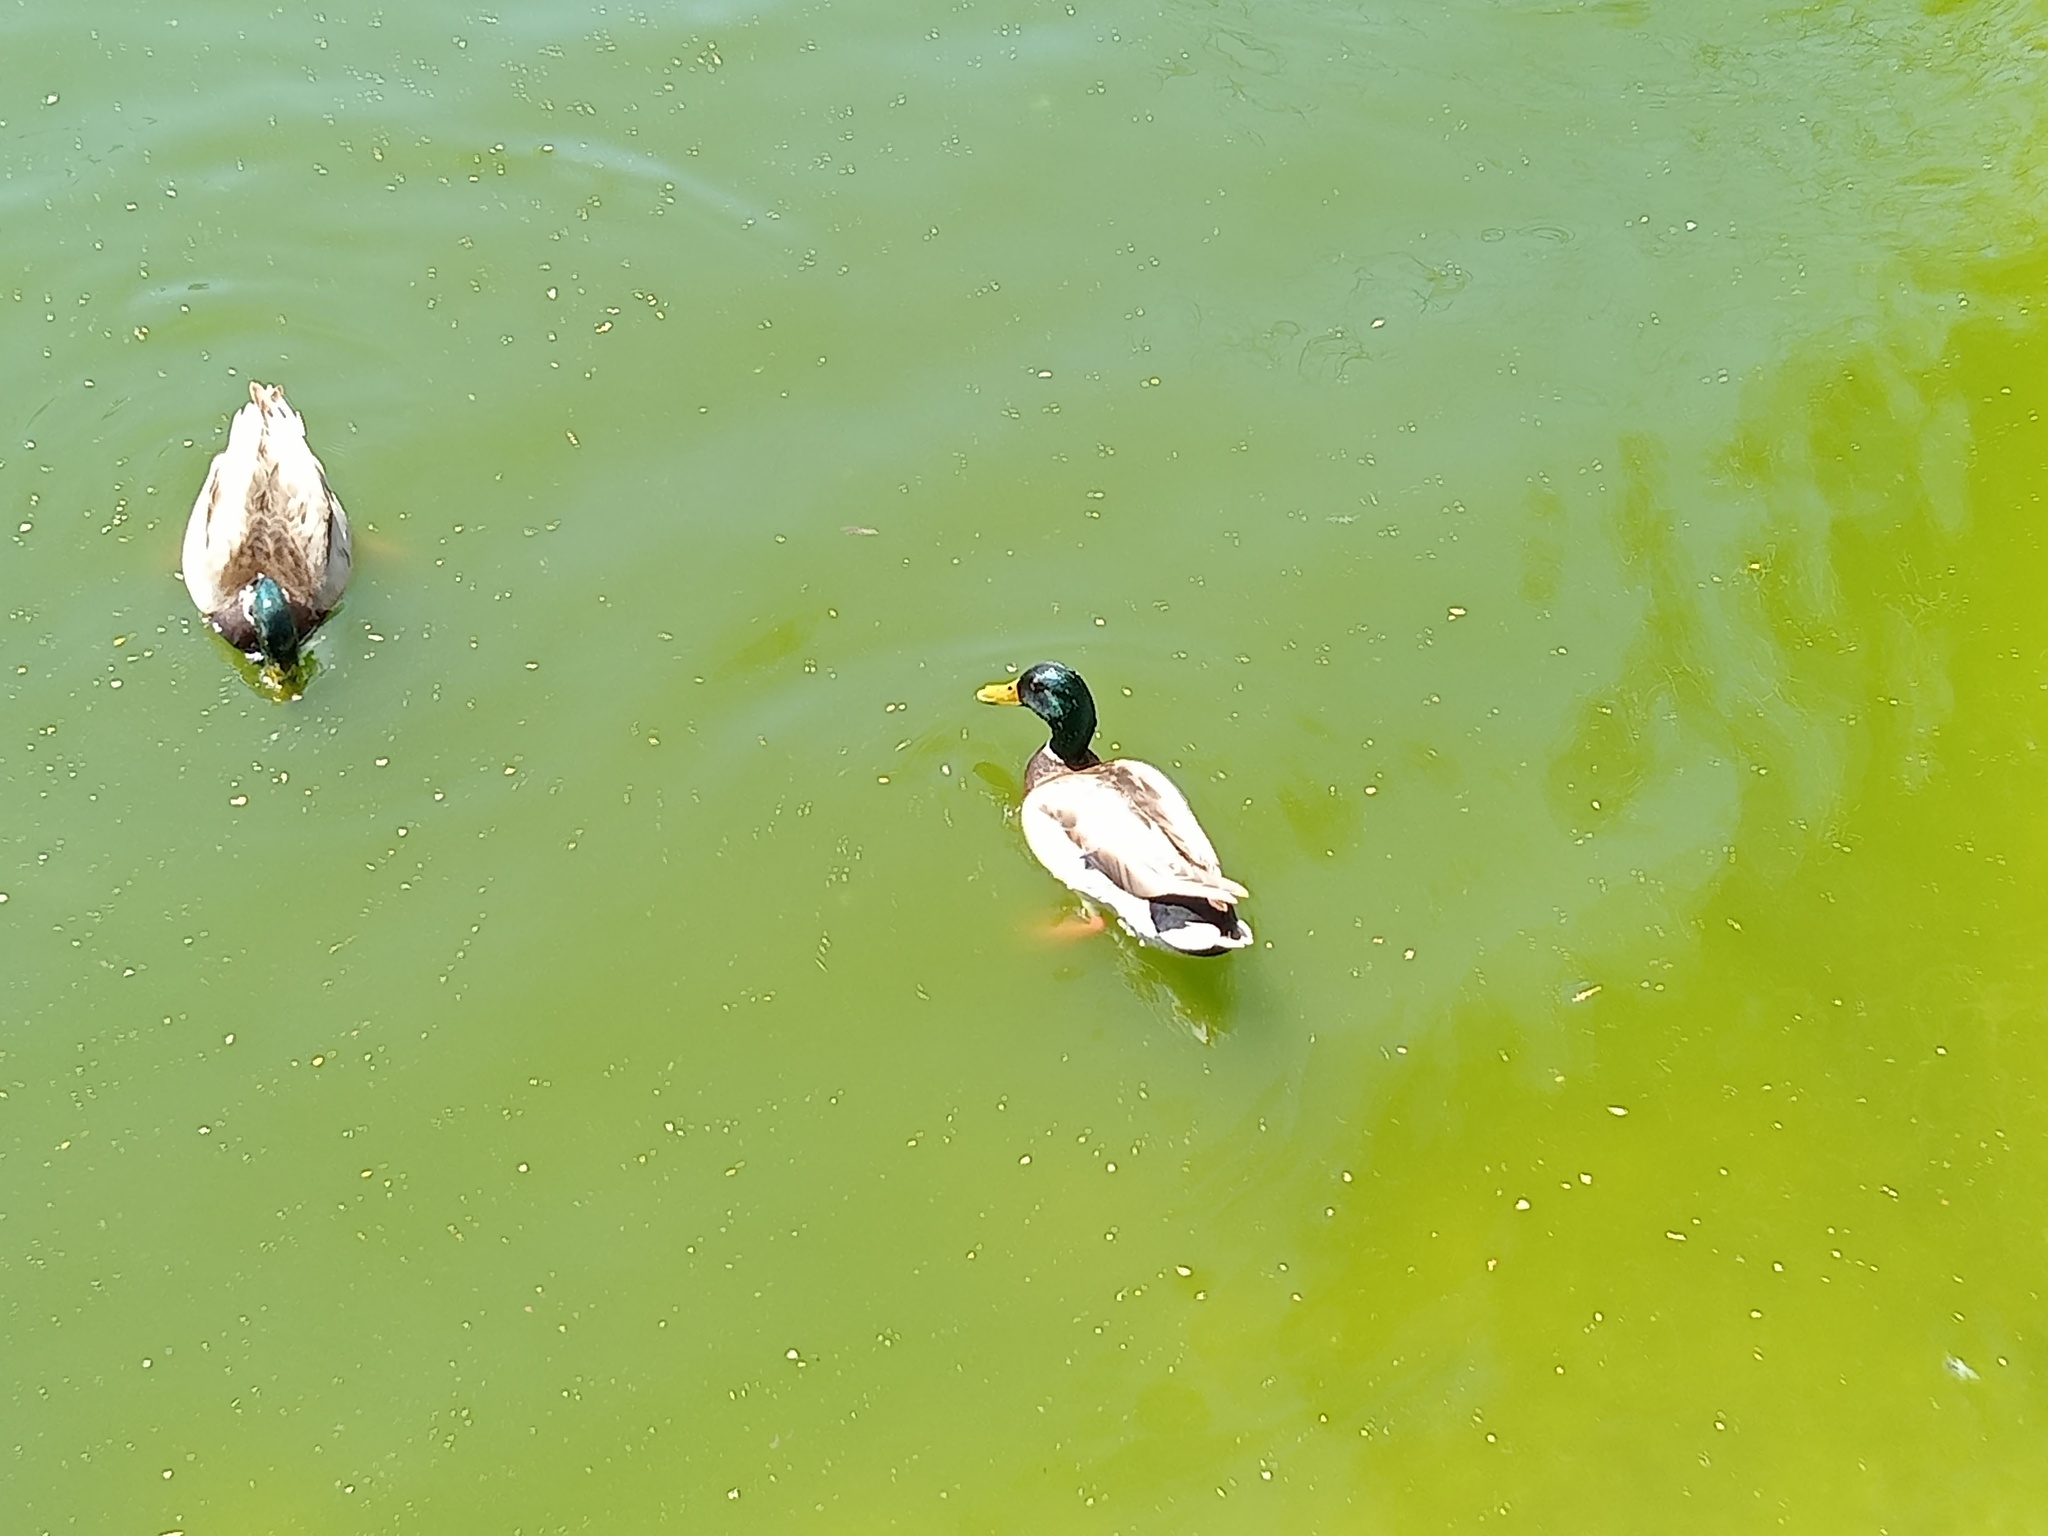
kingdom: Animalia
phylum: Chordata
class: Aves
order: Anseriformes
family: Anatidae
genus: Anas
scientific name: Anas platyrhynchos
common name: Mallard
